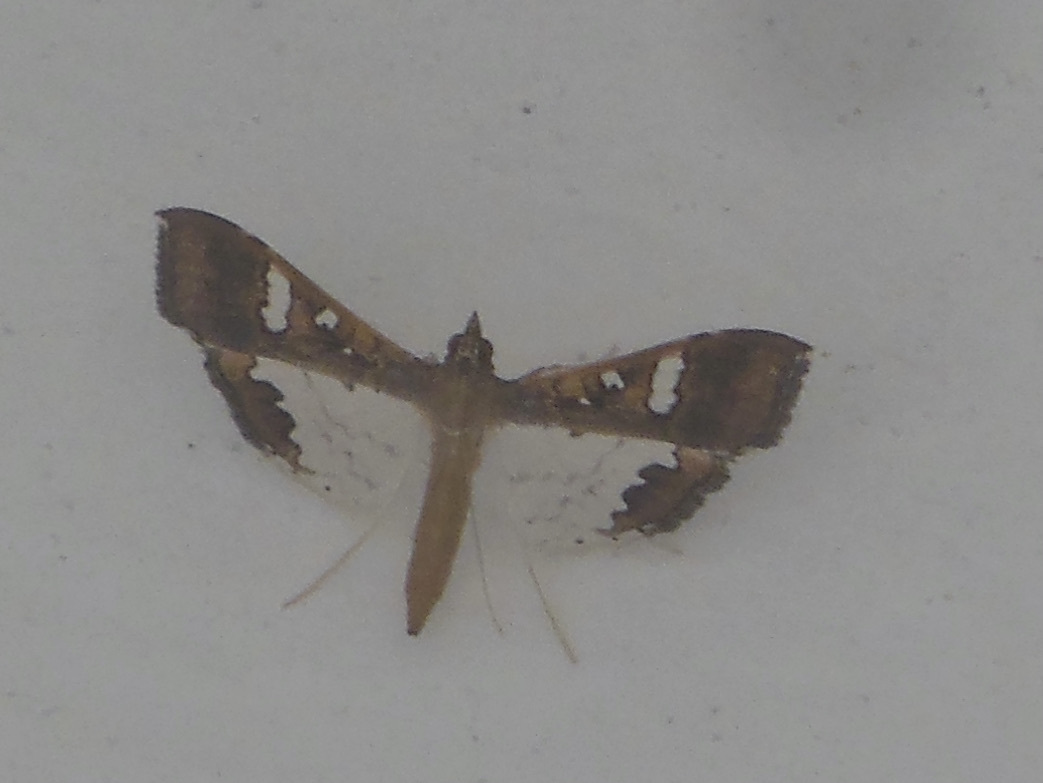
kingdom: Animalia
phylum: Arthropoda
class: Insecta
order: Lepidoptera
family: Crambidae
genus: Maruca
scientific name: Maruca vitrata
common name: Maruca pod borer
